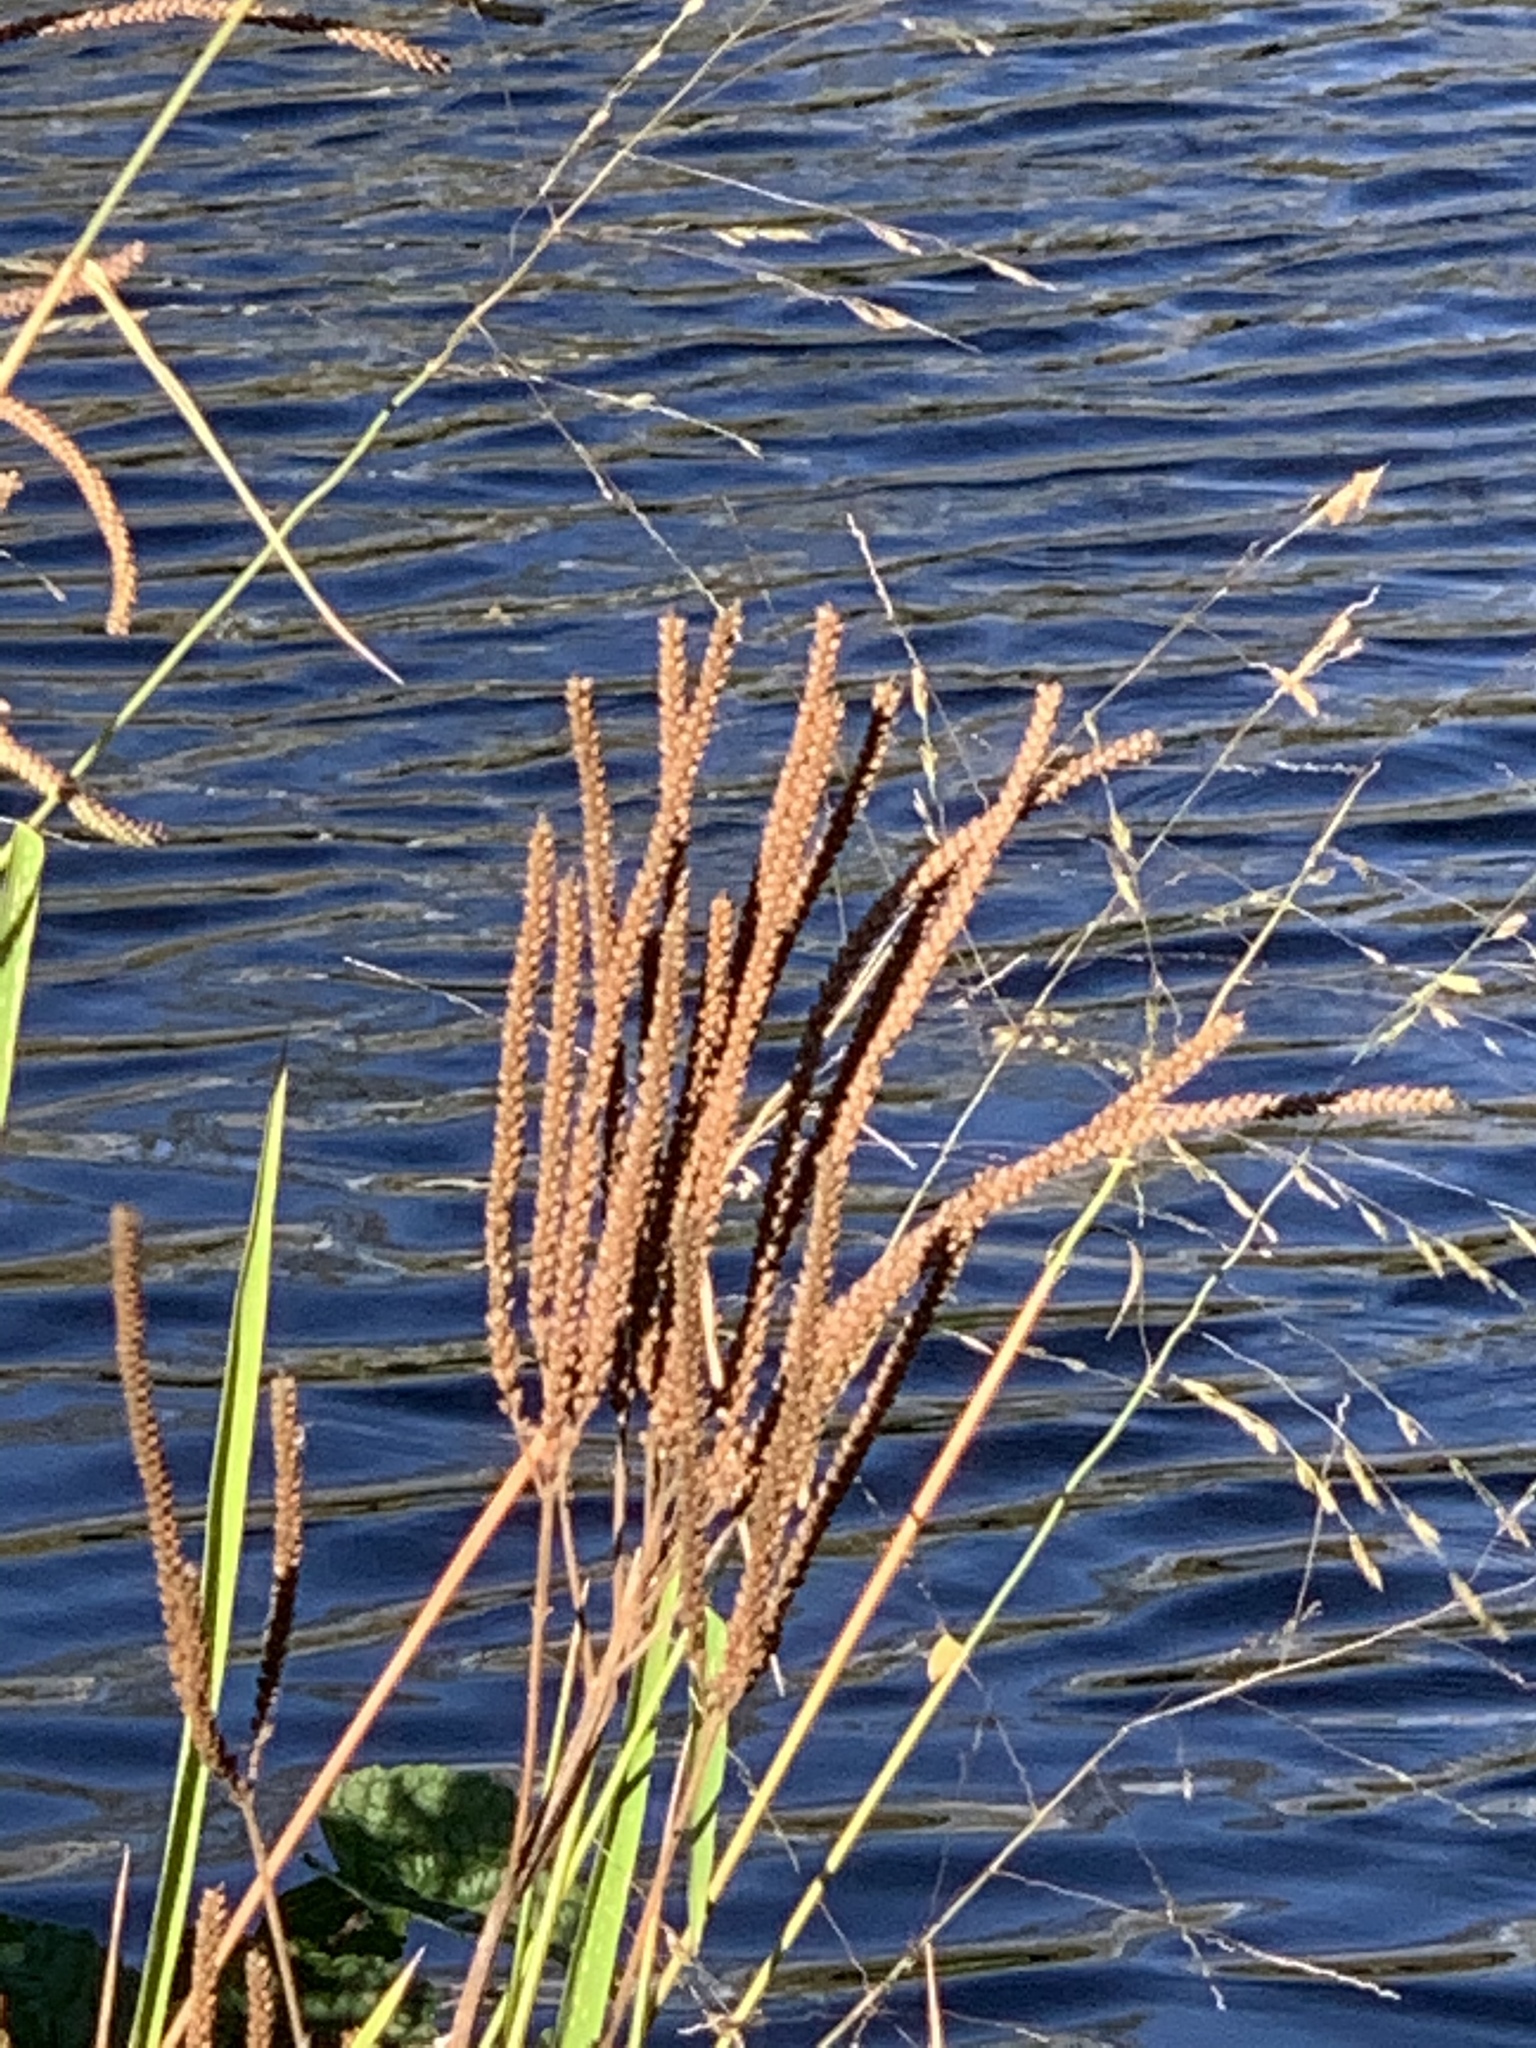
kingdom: Plantae
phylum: Tracheophyta
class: Magnoliopsida
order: Lamiales
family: Verbenaceae
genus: Verbena
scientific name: Verbena hastata
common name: American blue vervain
